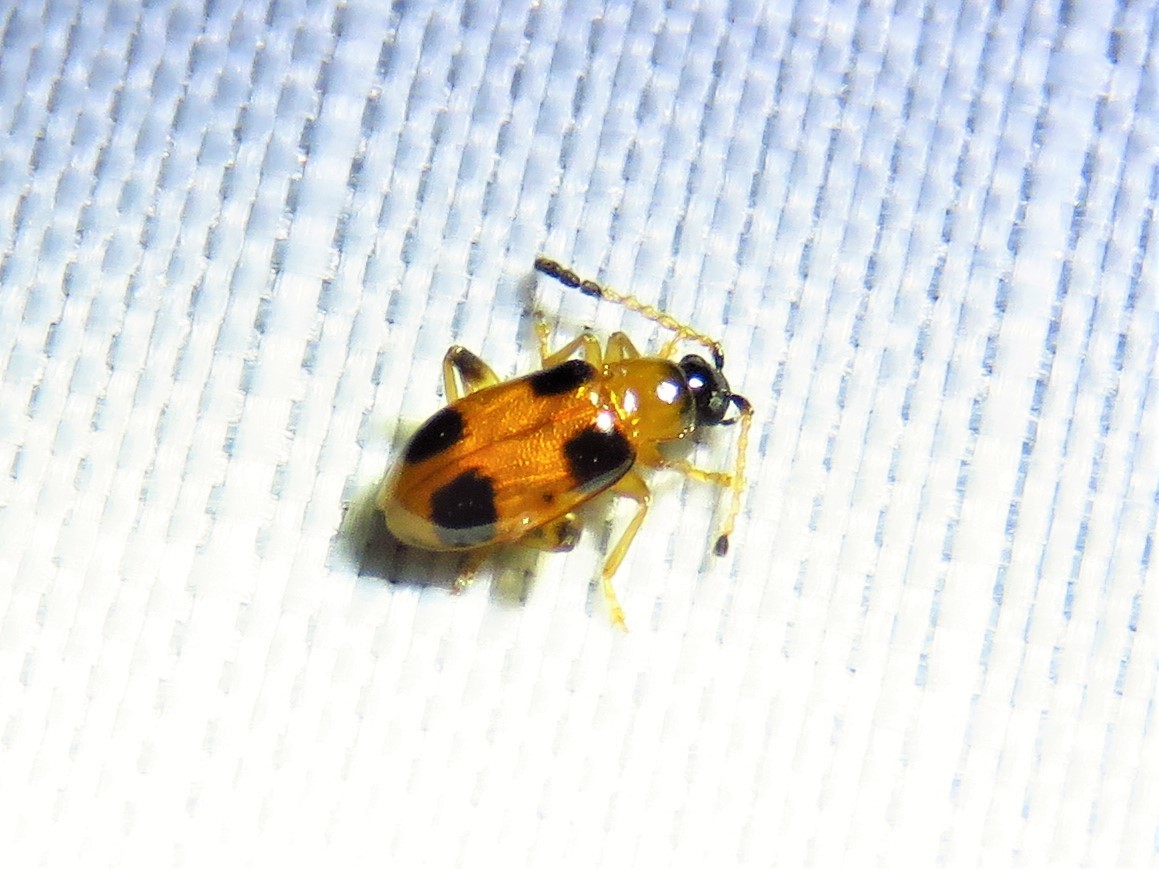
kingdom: Animalia
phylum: Arthropoda
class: Insecta
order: Coleoptera
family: Chrysomelidae
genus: Cornulactica
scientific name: Cornulactica
